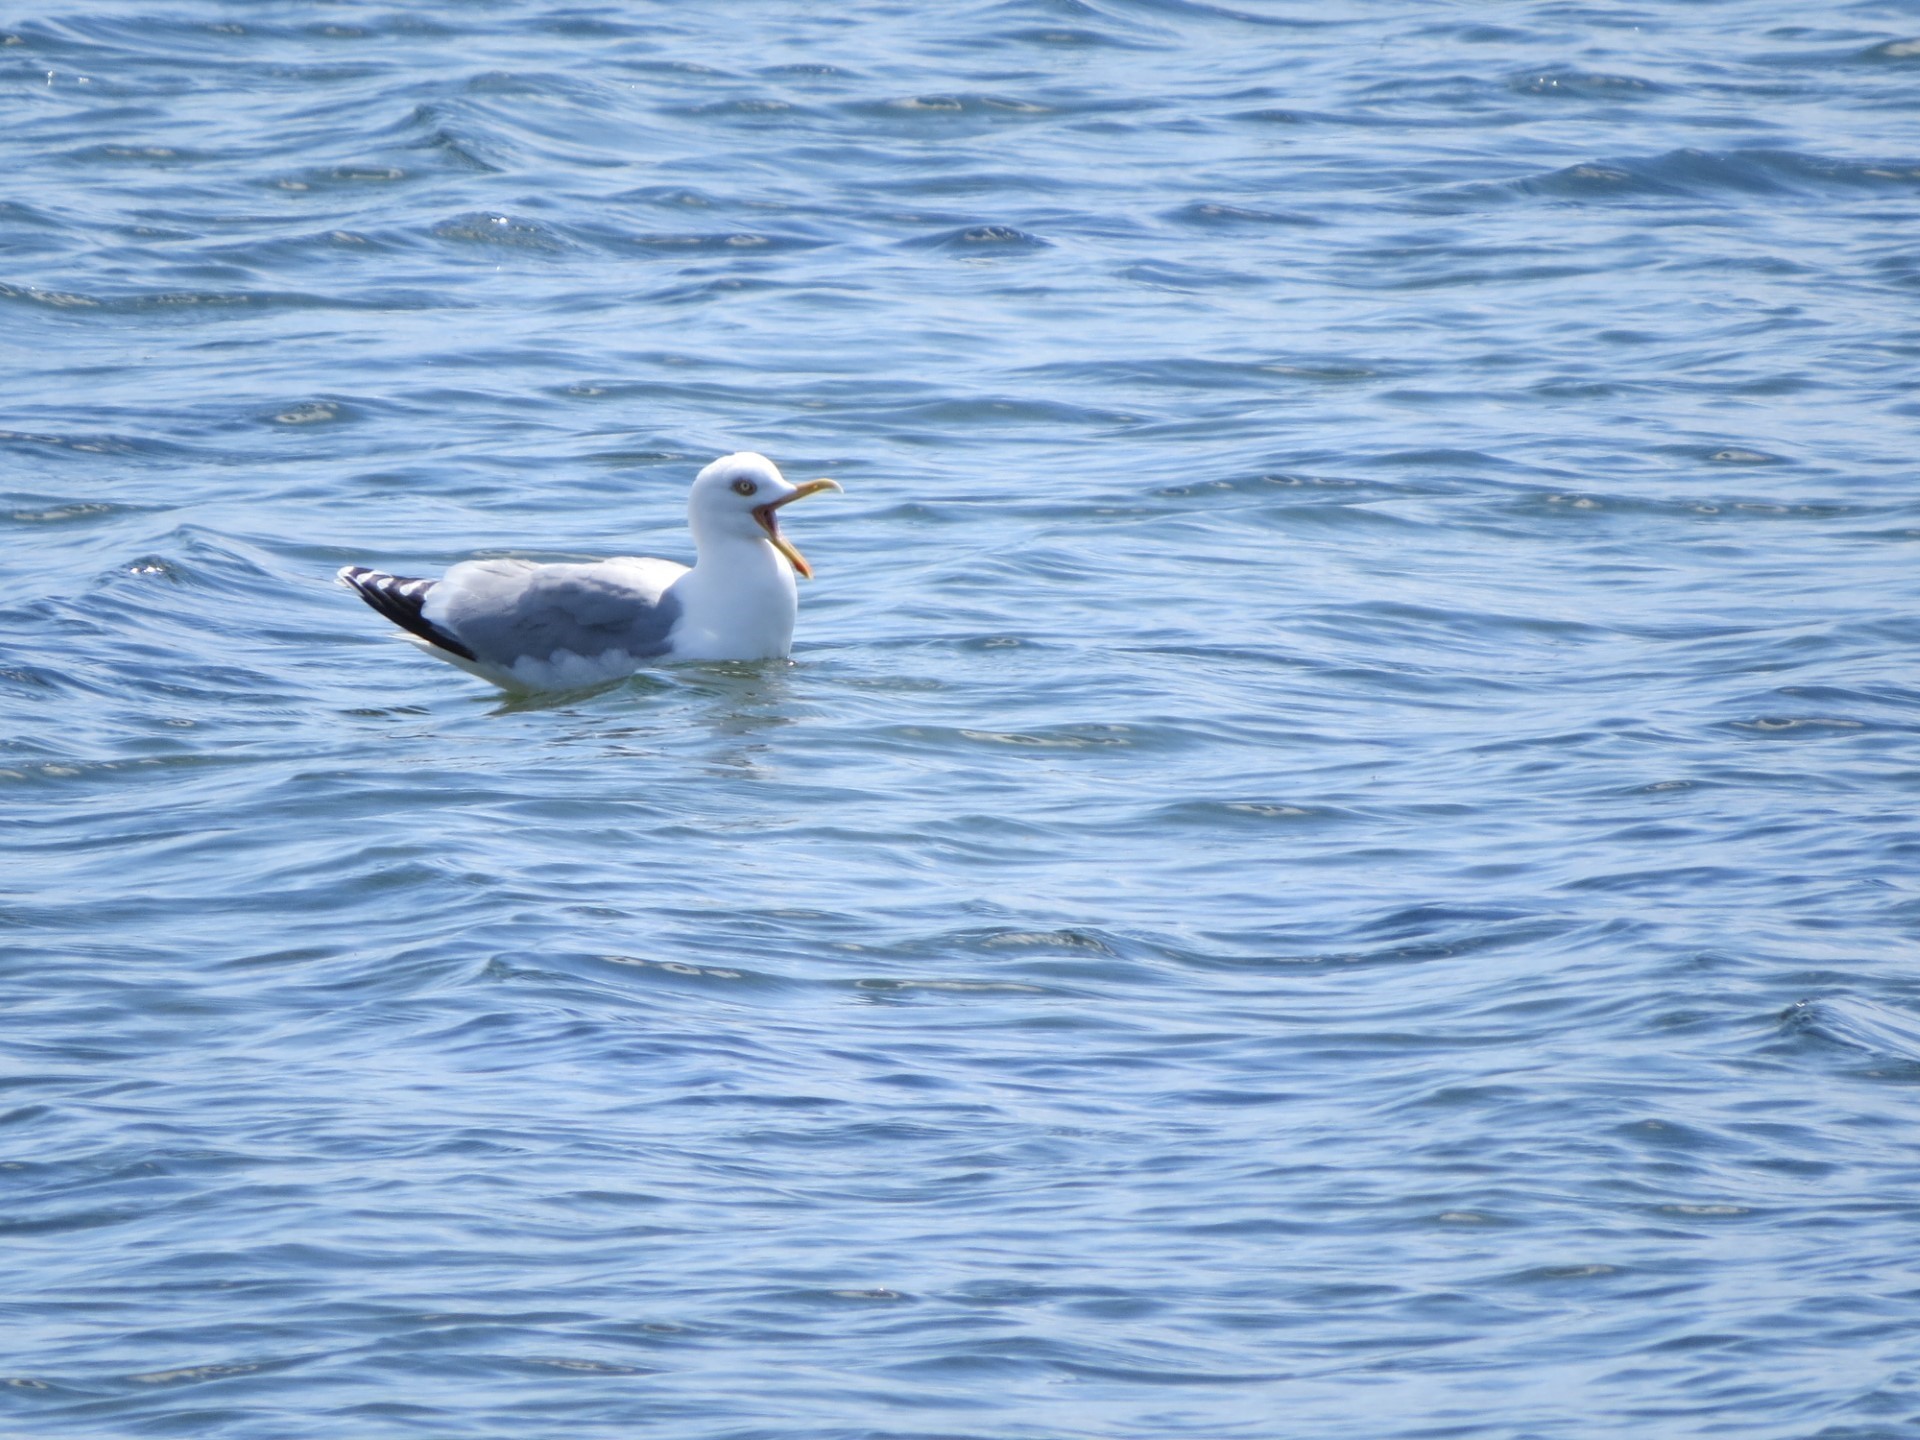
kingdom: Animalia
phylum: Chordata
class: Aves
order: Charadriiformes
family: Laridae
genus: Larus
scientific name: Larus argentatus
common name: Herring gull
